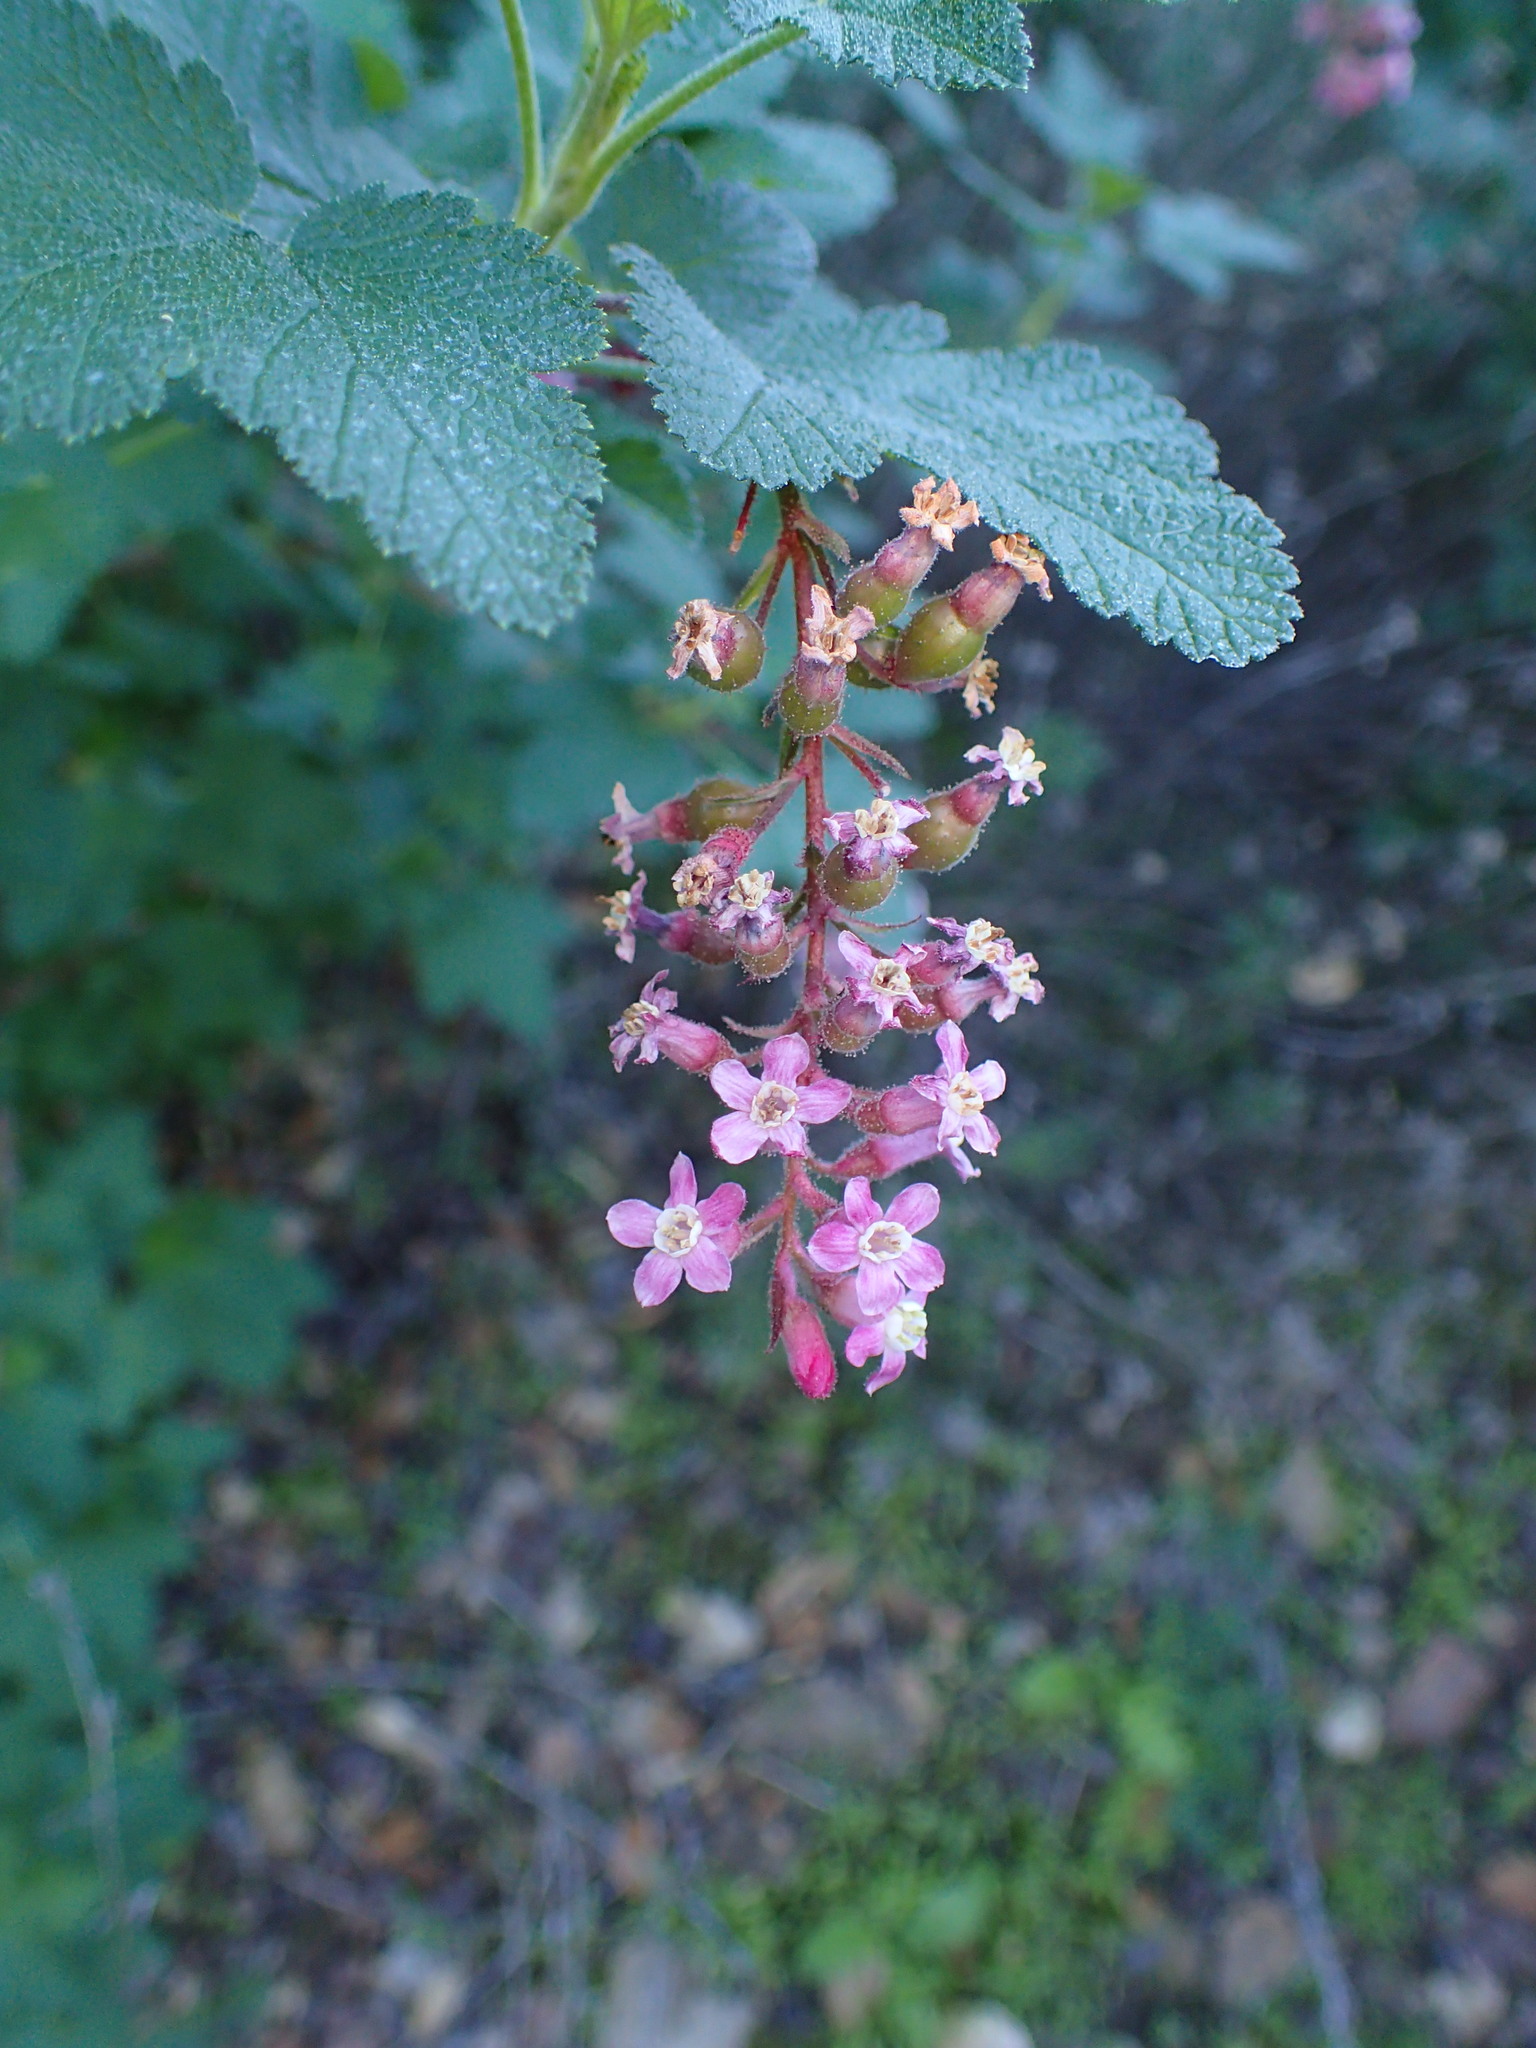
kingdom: Plantae
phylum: Tracheophyta
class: Magnoliopsida
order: Saxifragales
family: Grossulariaceae
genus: Ribes
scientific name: Ribes malvaceum
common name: Chaparral currant
